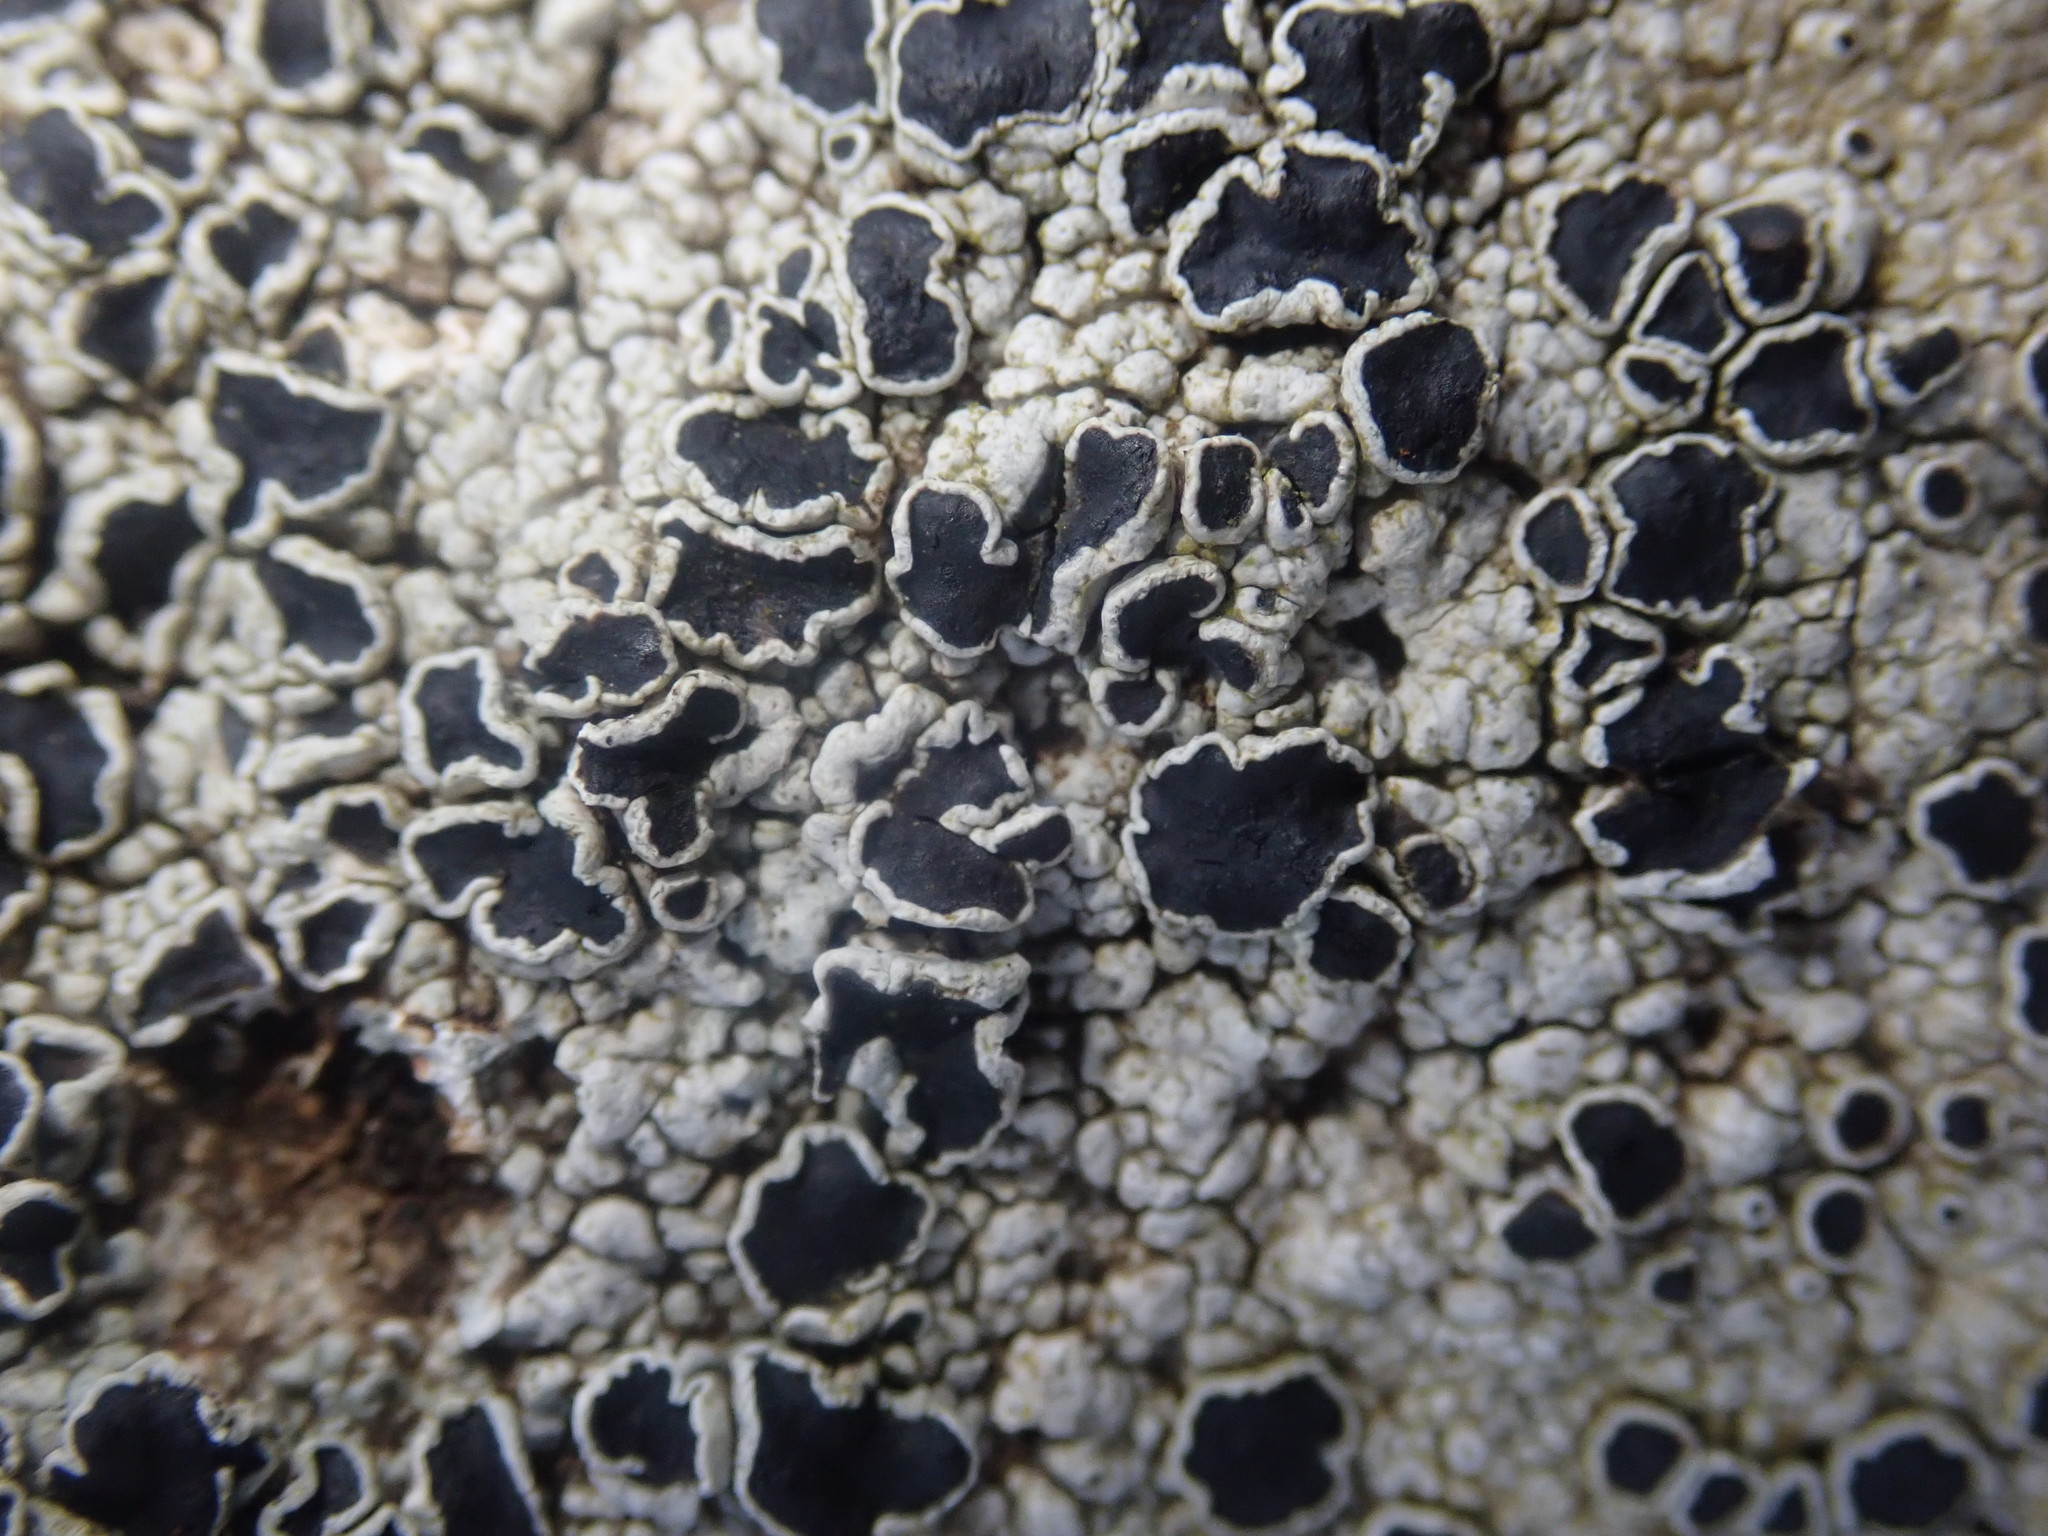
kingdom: Fungi
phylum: Ascomycota
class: Lecanoromycetes
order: Lecanorales
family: Tephromelataceae
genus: Tephromela
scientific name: Tephromela atra
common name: Black shields
